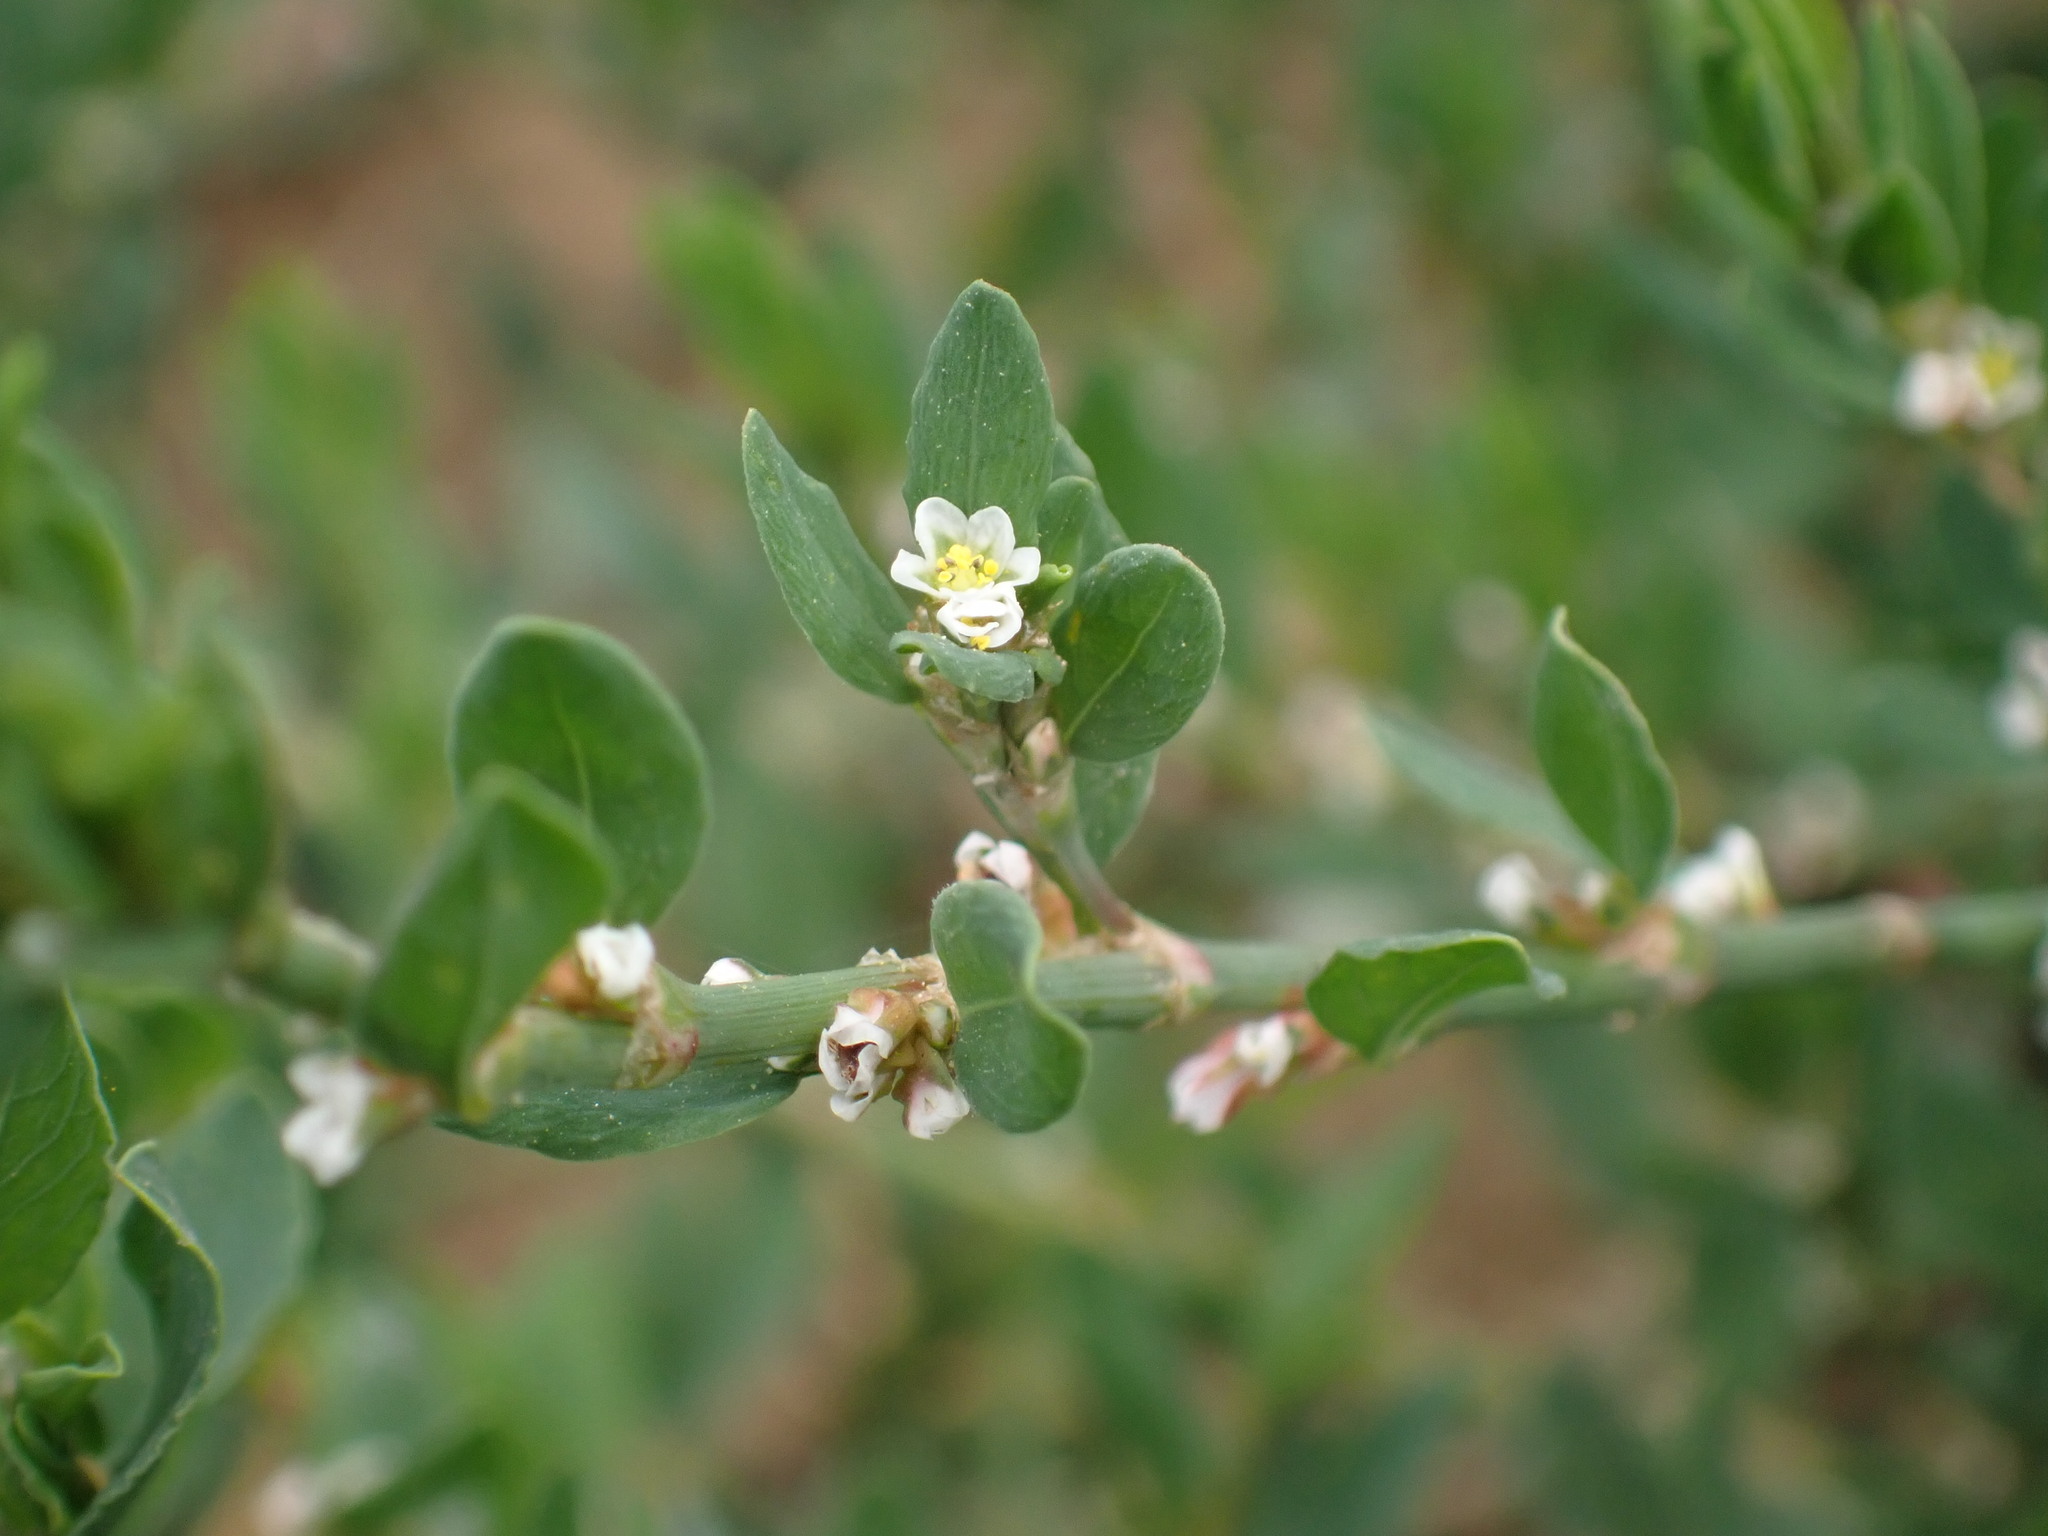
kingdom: Plantae
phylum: Tracheophyta
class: Magnoliopsida
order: Caryophyllales
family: Polygonaceae
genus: Polygonum
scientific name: Polygonum aviculare
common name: Prostrate knotweed
